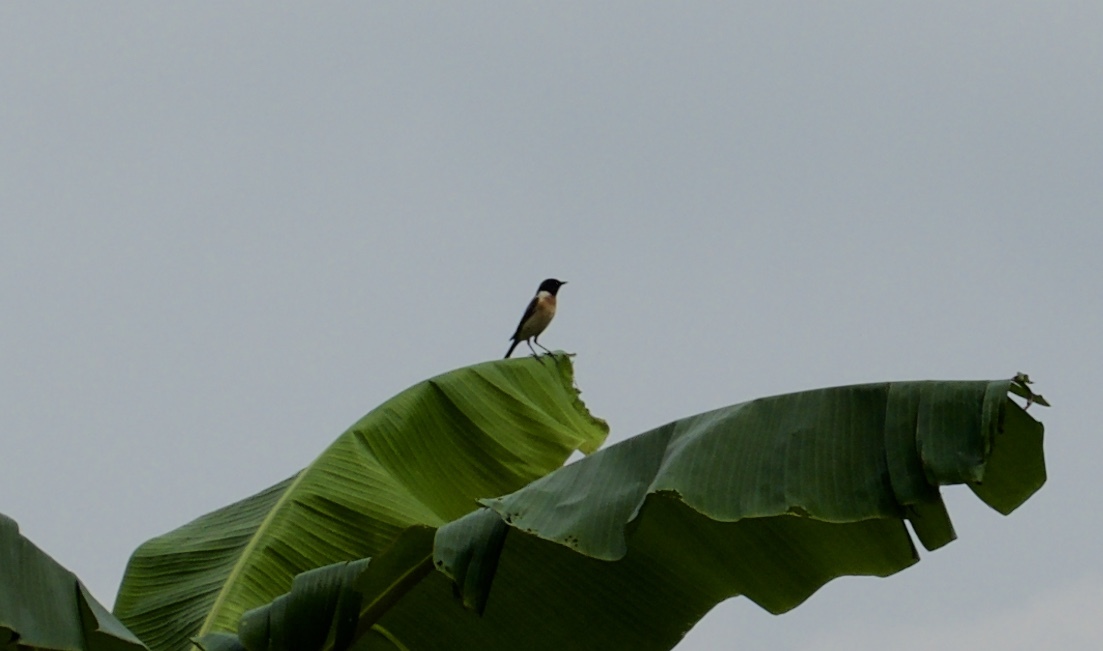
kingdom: Animalia
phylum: Chordata
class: Aves
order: Passeriformes
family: Muscicapidae
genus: Saxicola
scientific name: Saxicola stejnegeri
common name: Stejneger's stonechat
